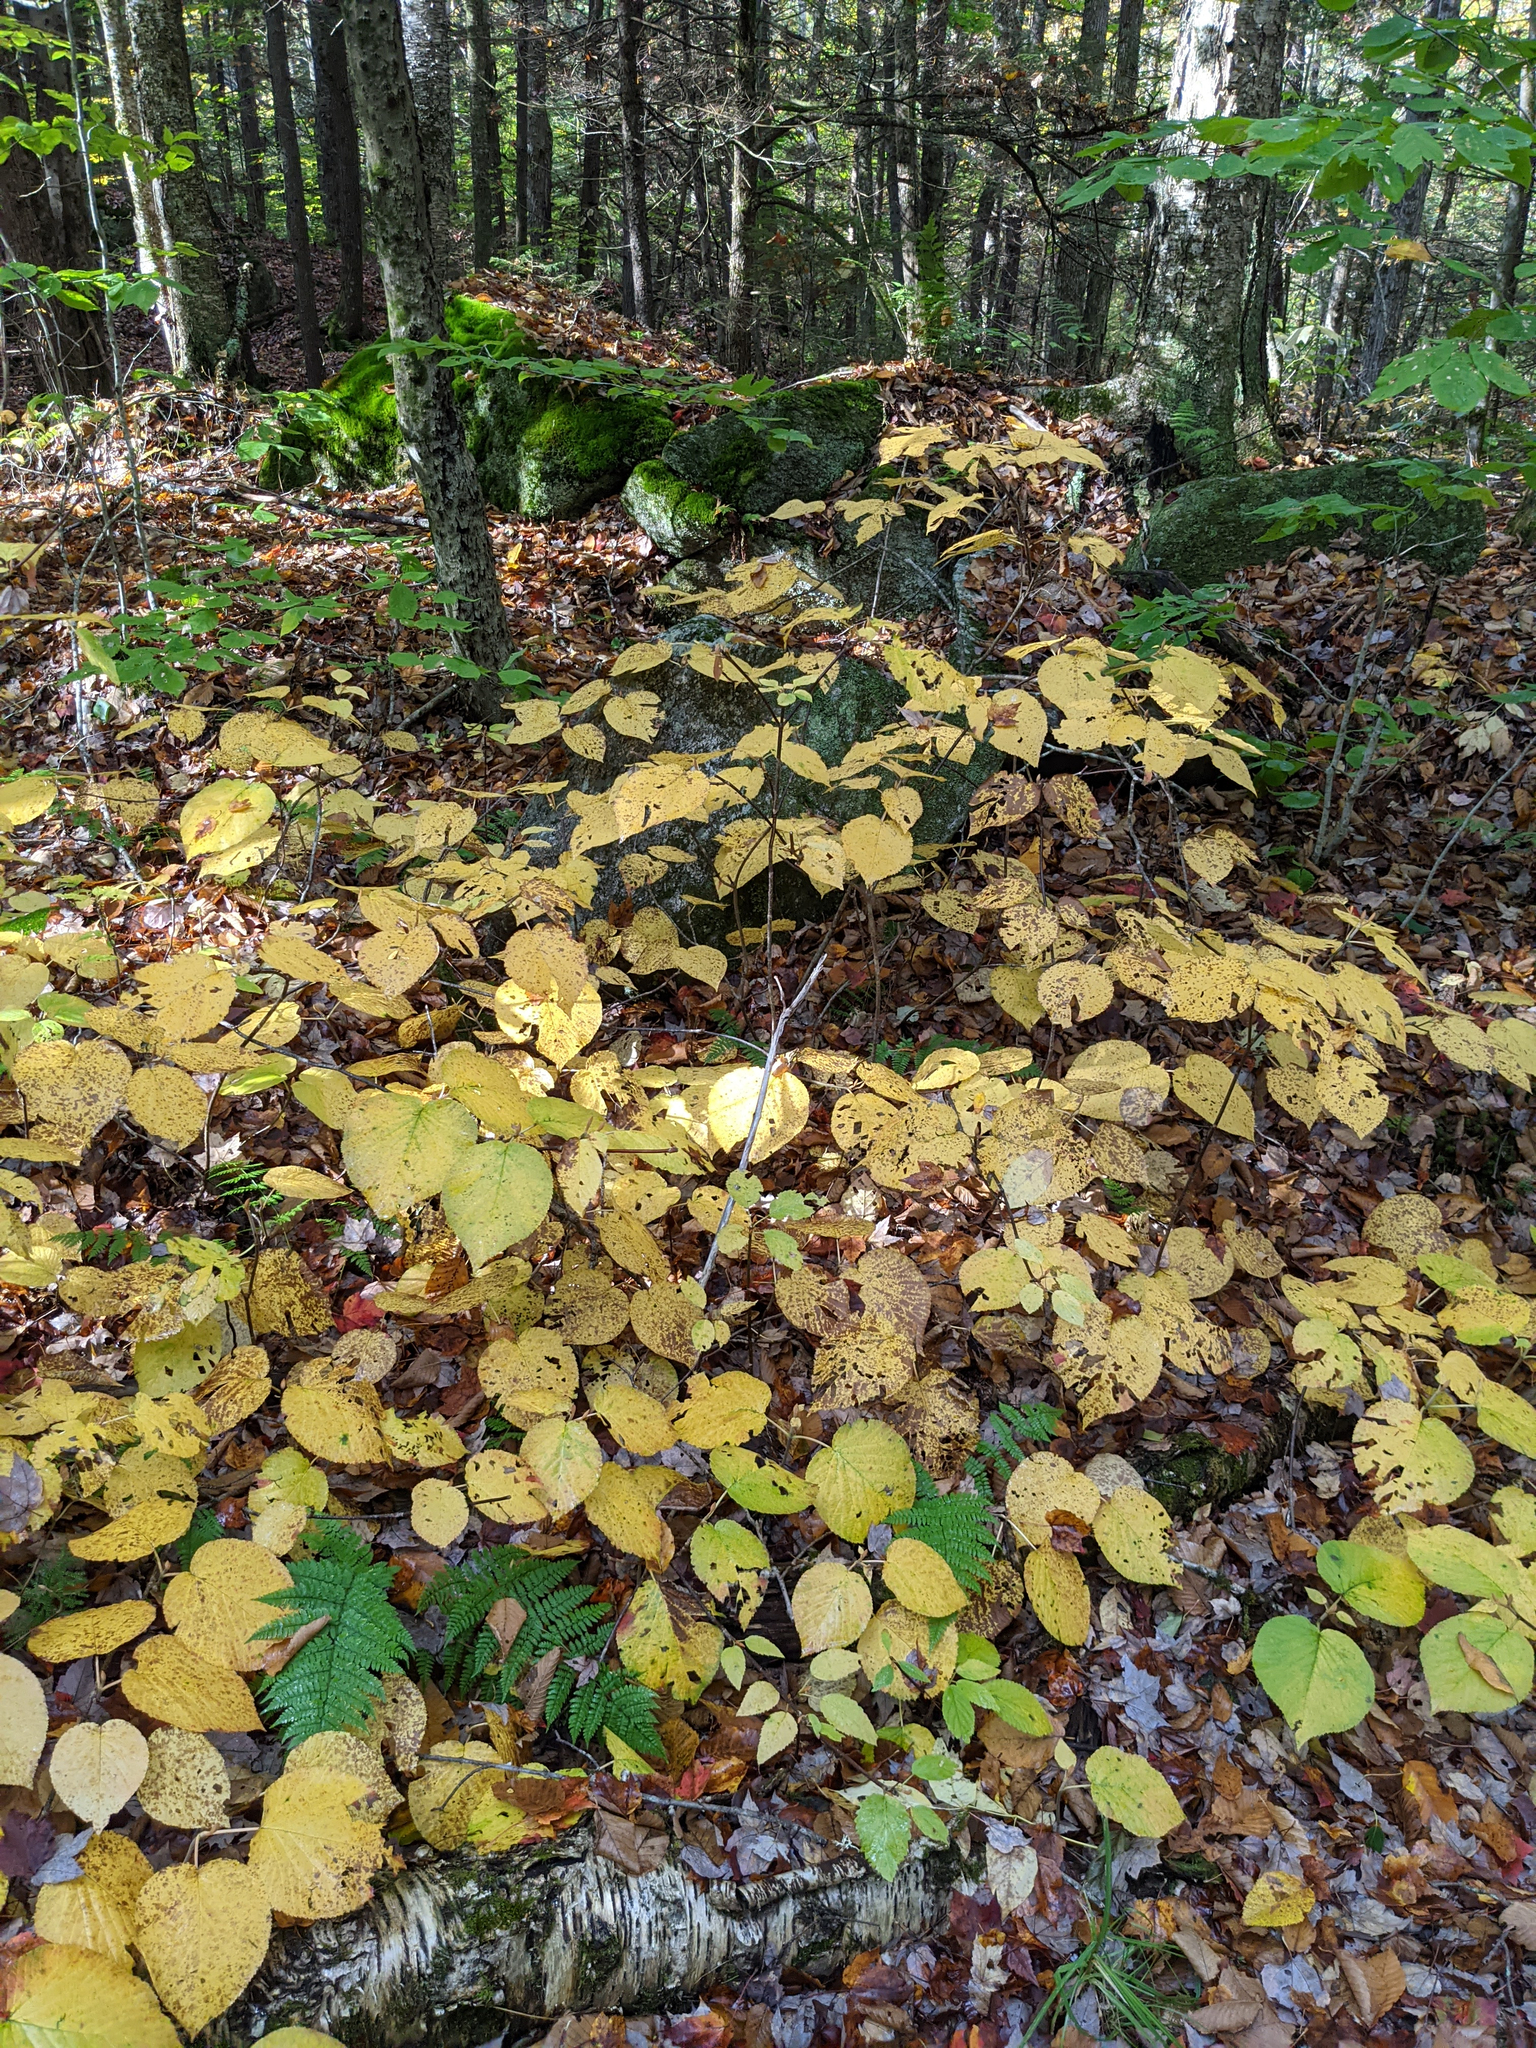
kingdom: Plantae
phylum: Tracheophyta
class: Magnoliopsida
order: Dipsacales
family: Viburnaceae
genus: Viburnum
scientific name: Viburnum lantanoides
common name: Hobblebush
